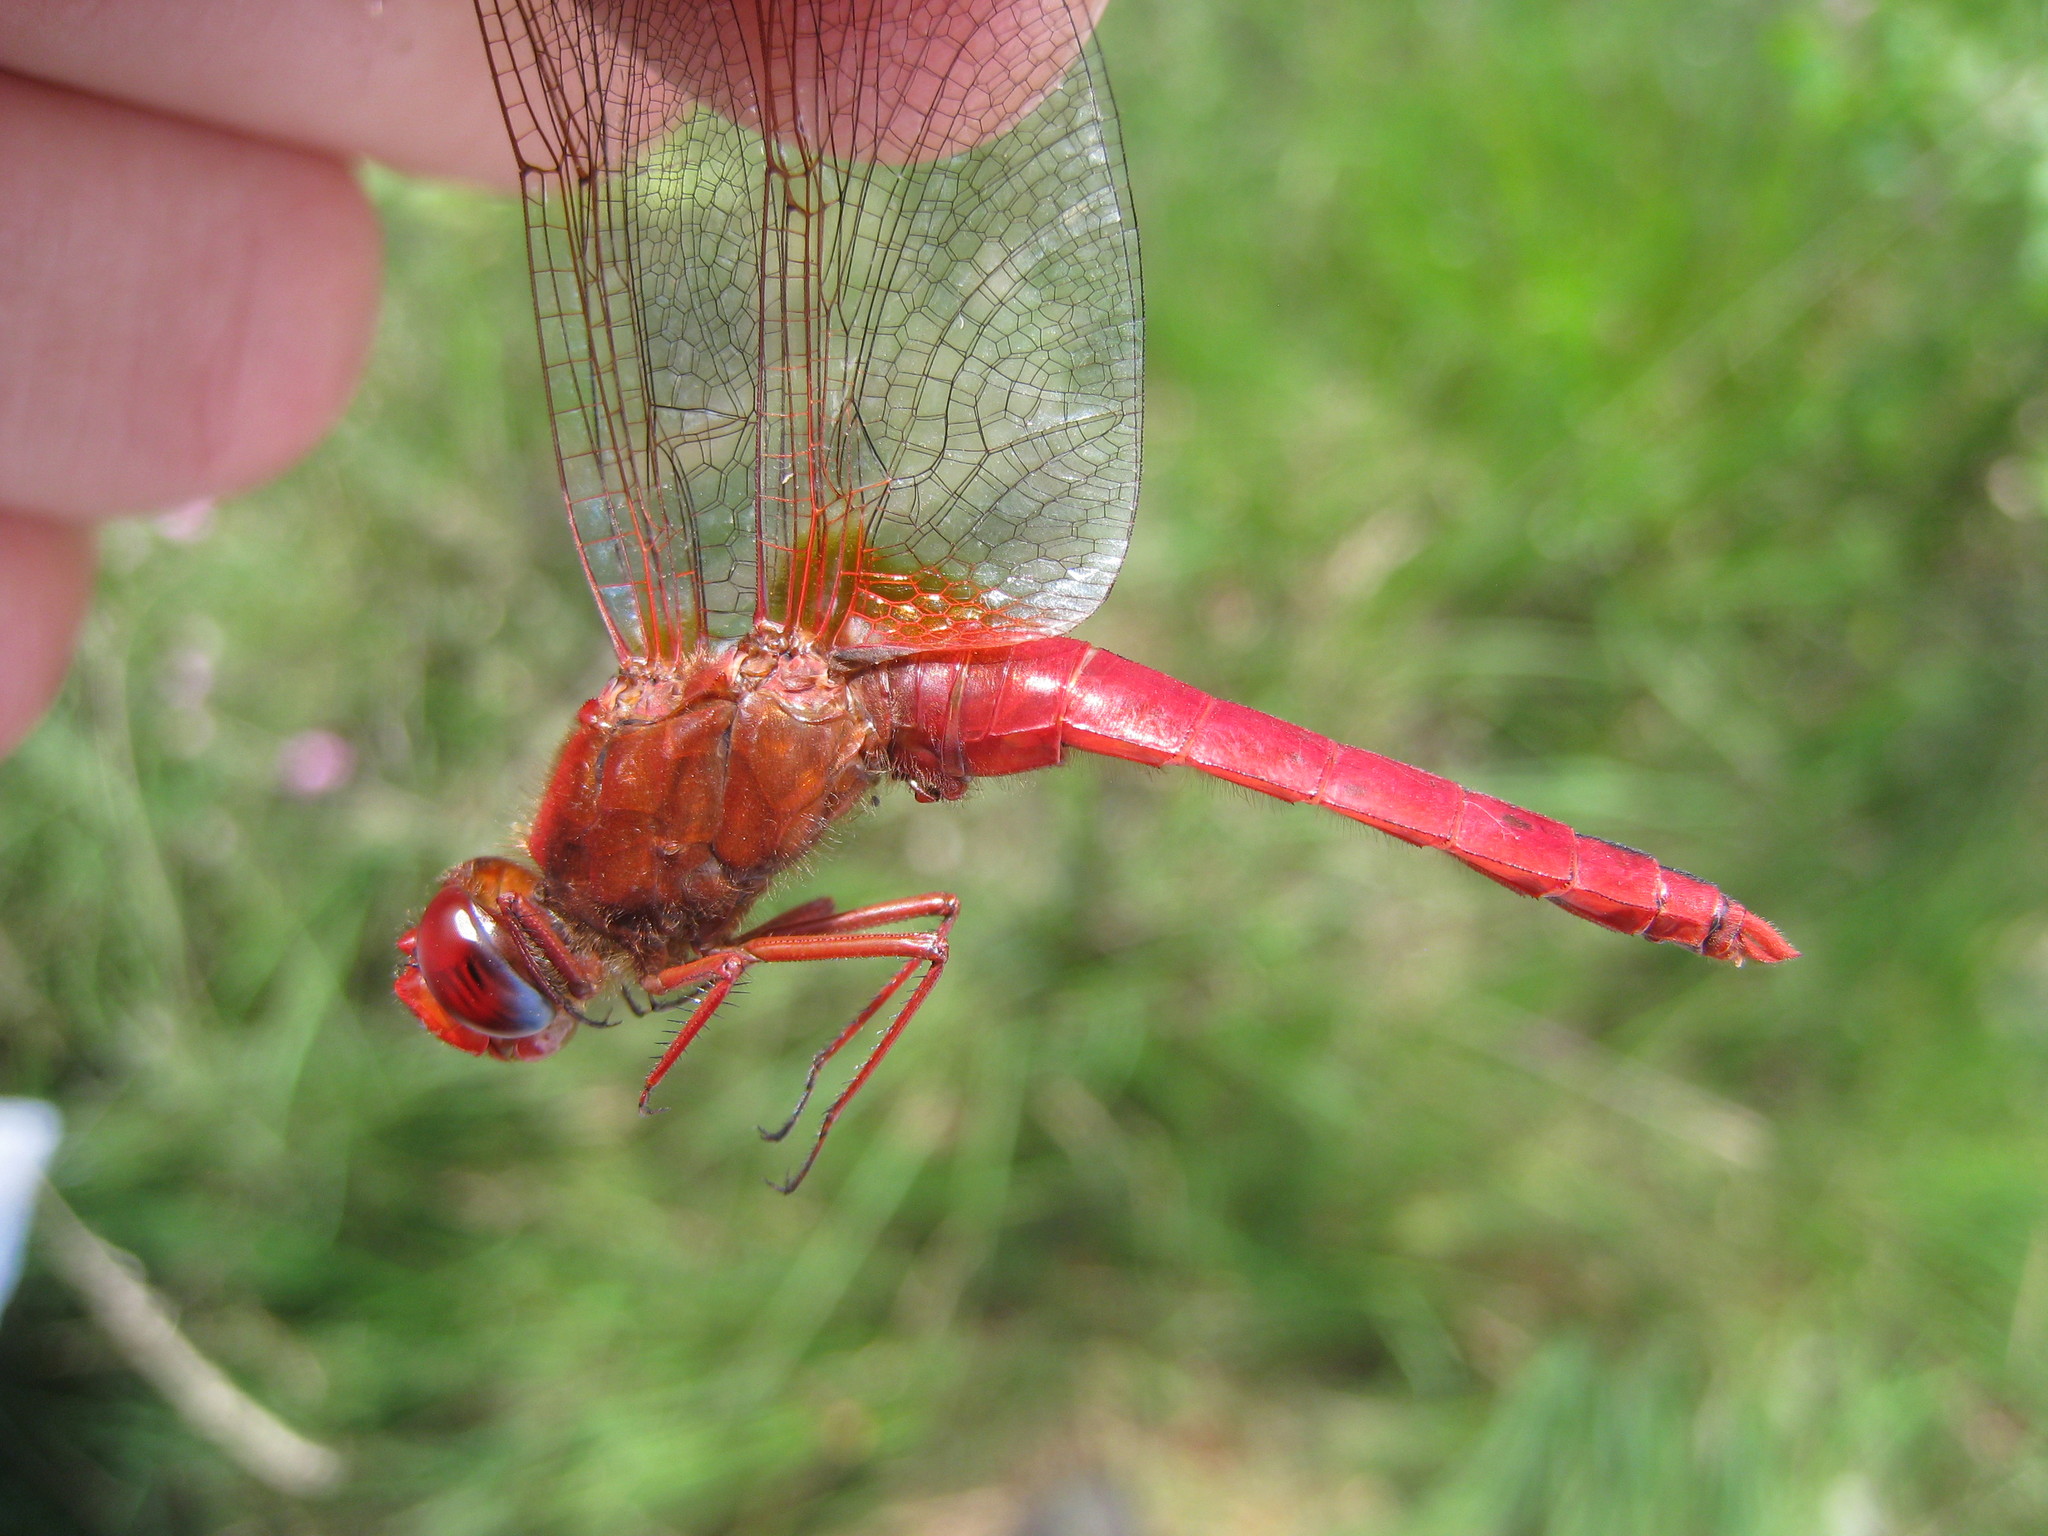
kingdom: Animalia
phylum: Arthropoda
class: Insecta
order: Odonata
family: Libellulidae
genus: Crocothemis
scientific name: Crocothemis erythraea
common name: Scarlet dragonfly
